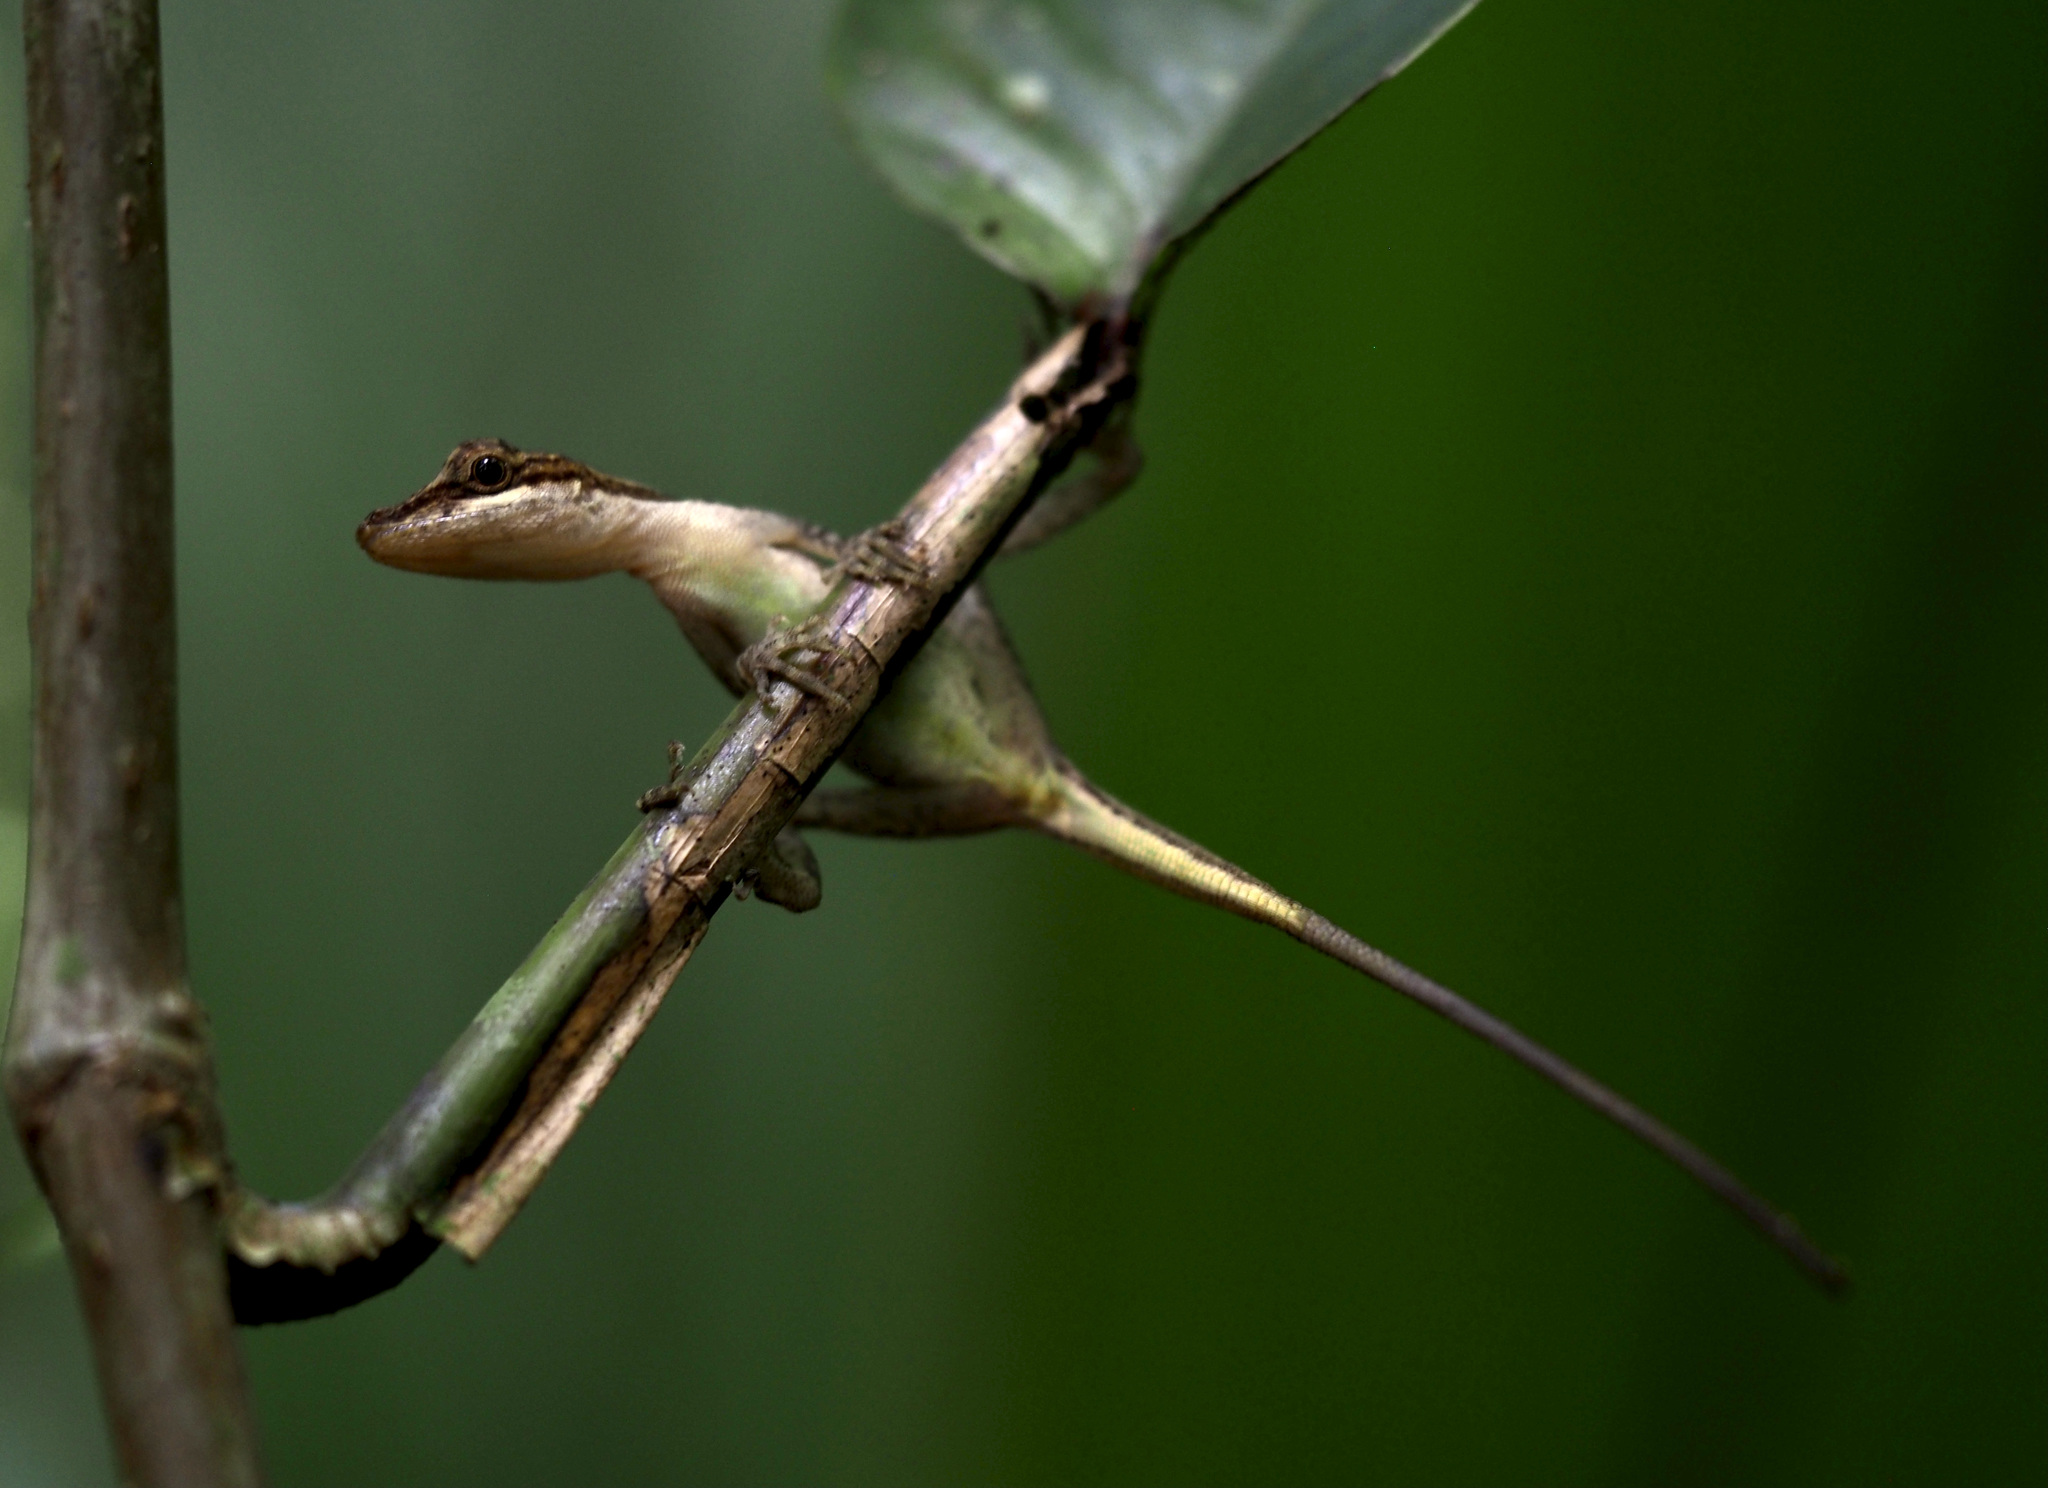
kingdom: Animalia
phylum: Chordata
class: Squamata
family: Dactyloidae
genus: Anolis
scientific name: Anolis limifrons
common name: Border anole
